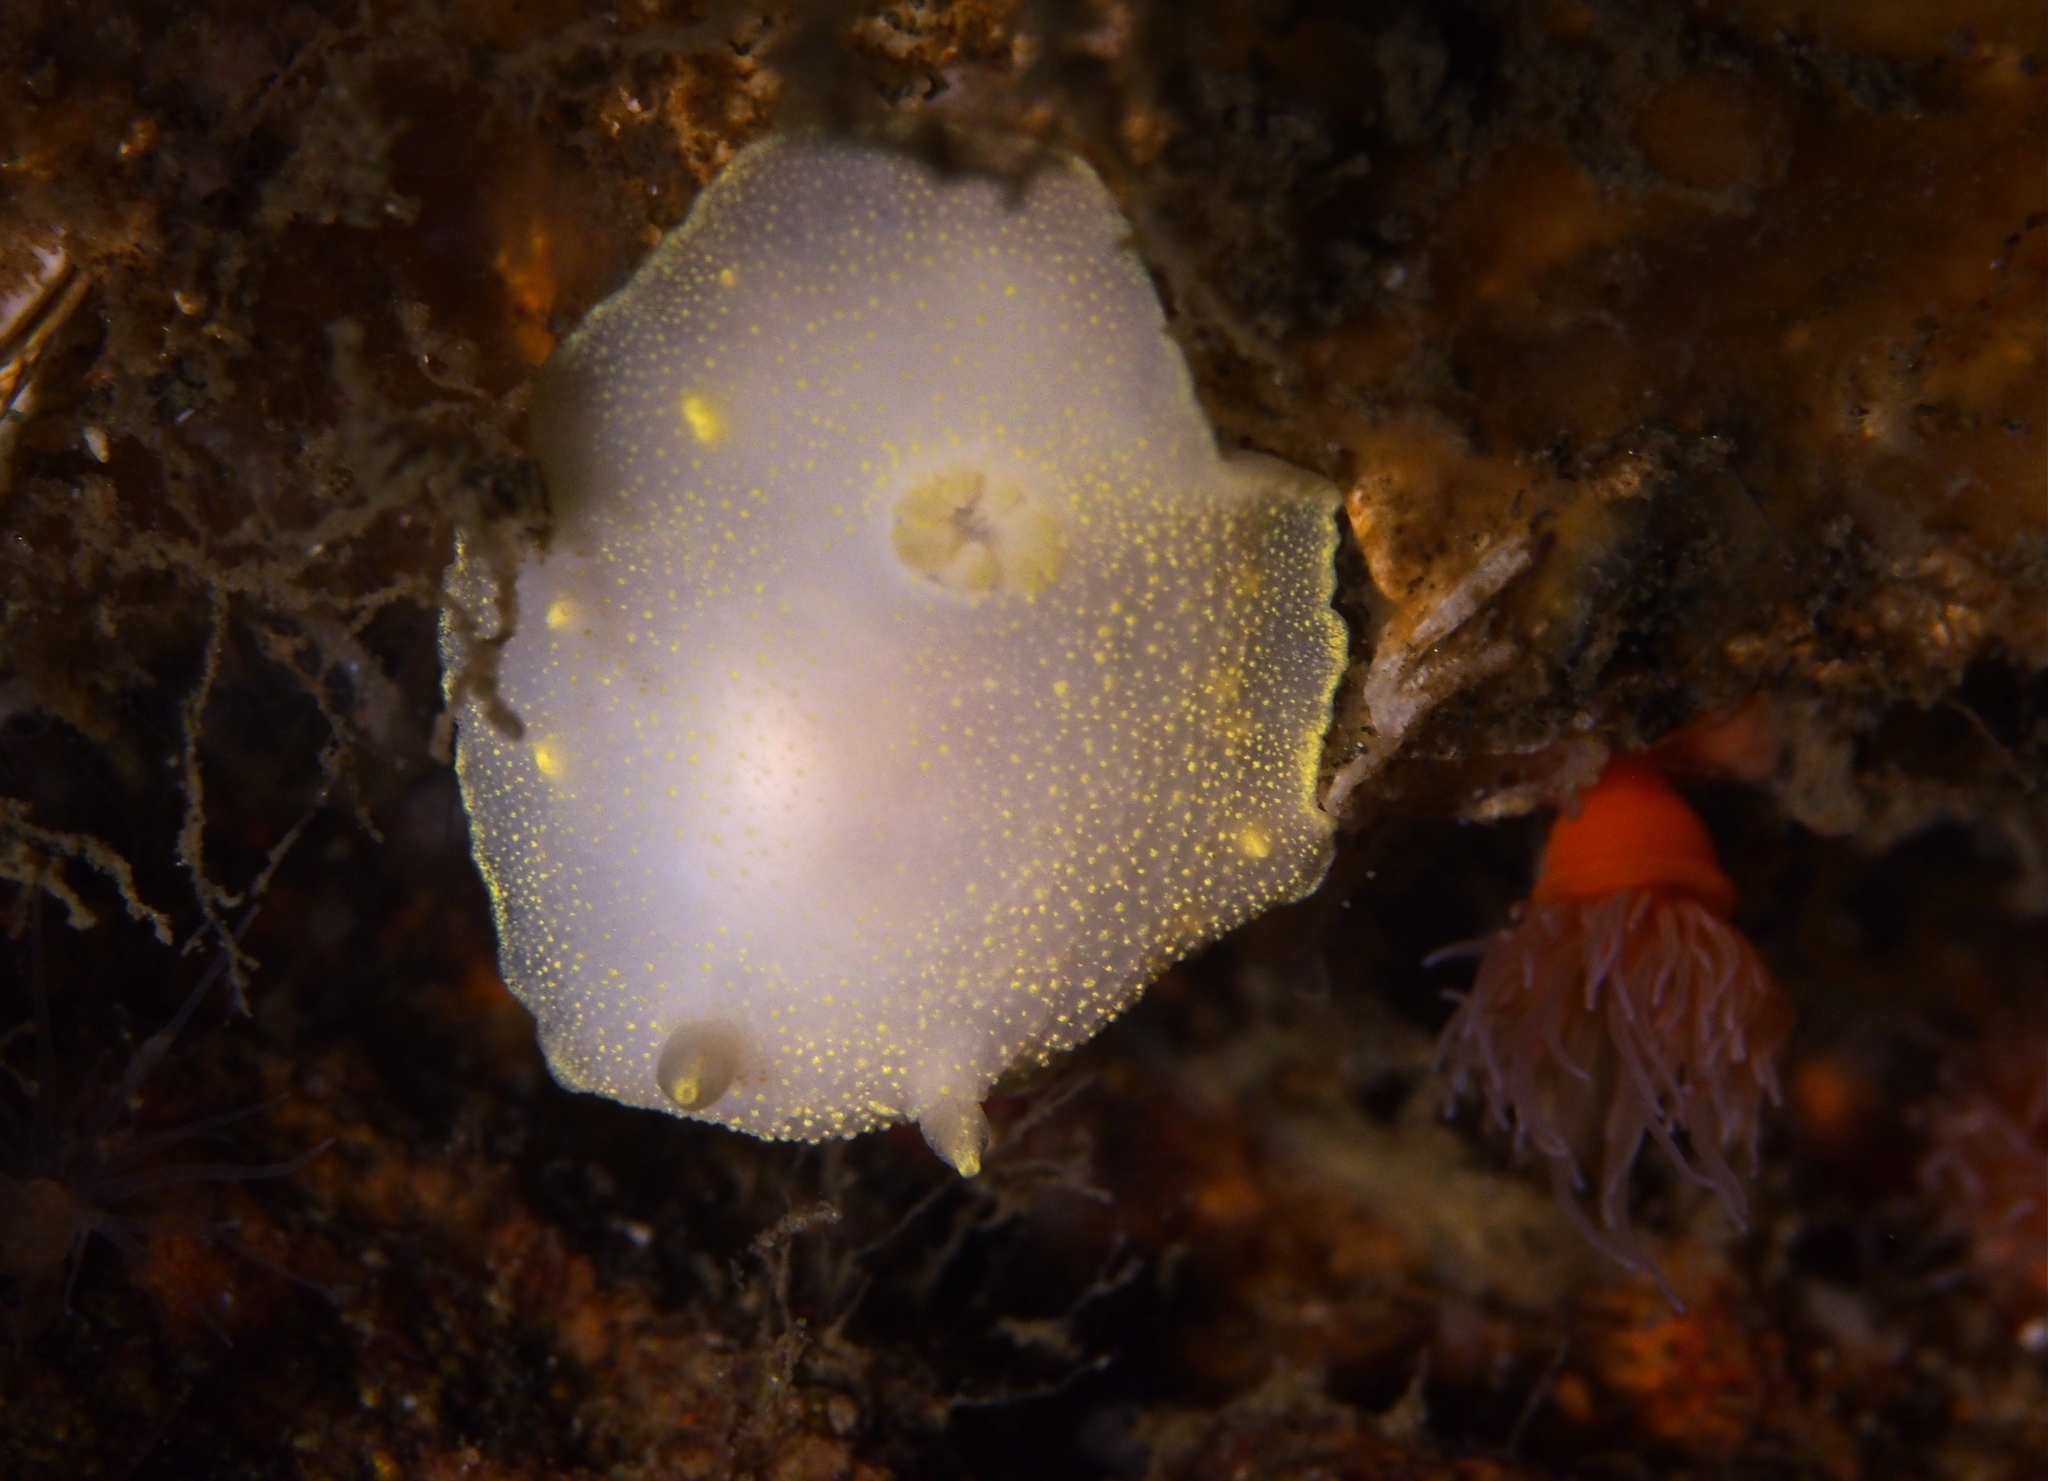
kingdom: Animalia
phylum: Mollusca
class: Gastropoda
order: Nudibranchia
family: Cadlinidae
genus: Cadlina
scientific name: Cadlina laevis
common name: White atlantic cadlina
